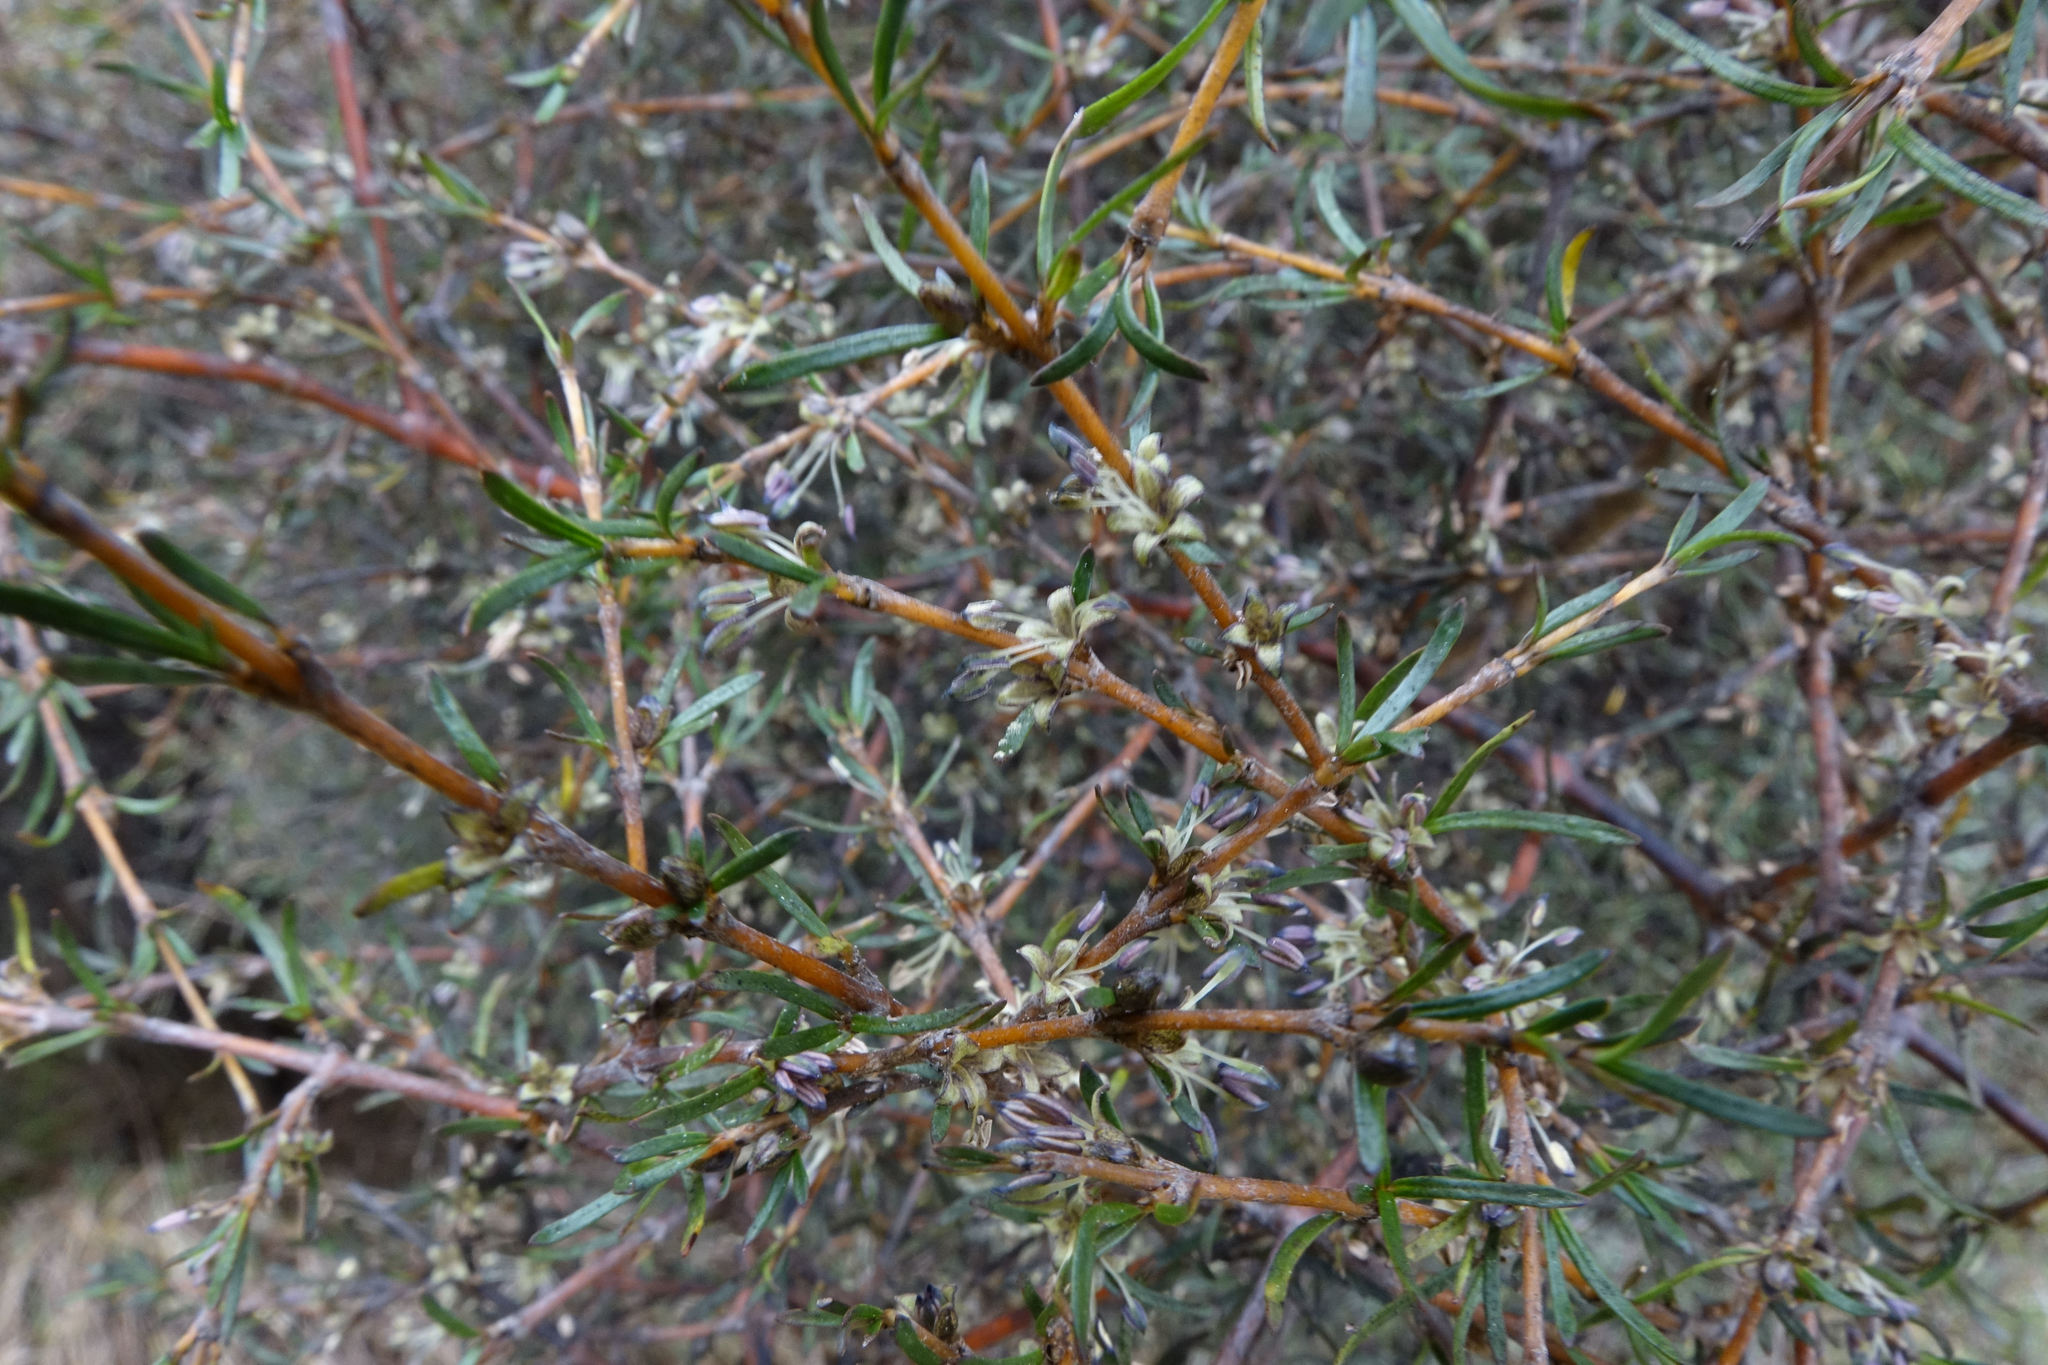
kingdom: Plantae
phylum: Tracheophyta
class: Magnoliopsida
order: Gentianales
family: Rubiaceae
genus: Coprosma
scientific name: Coprosma rugosa
